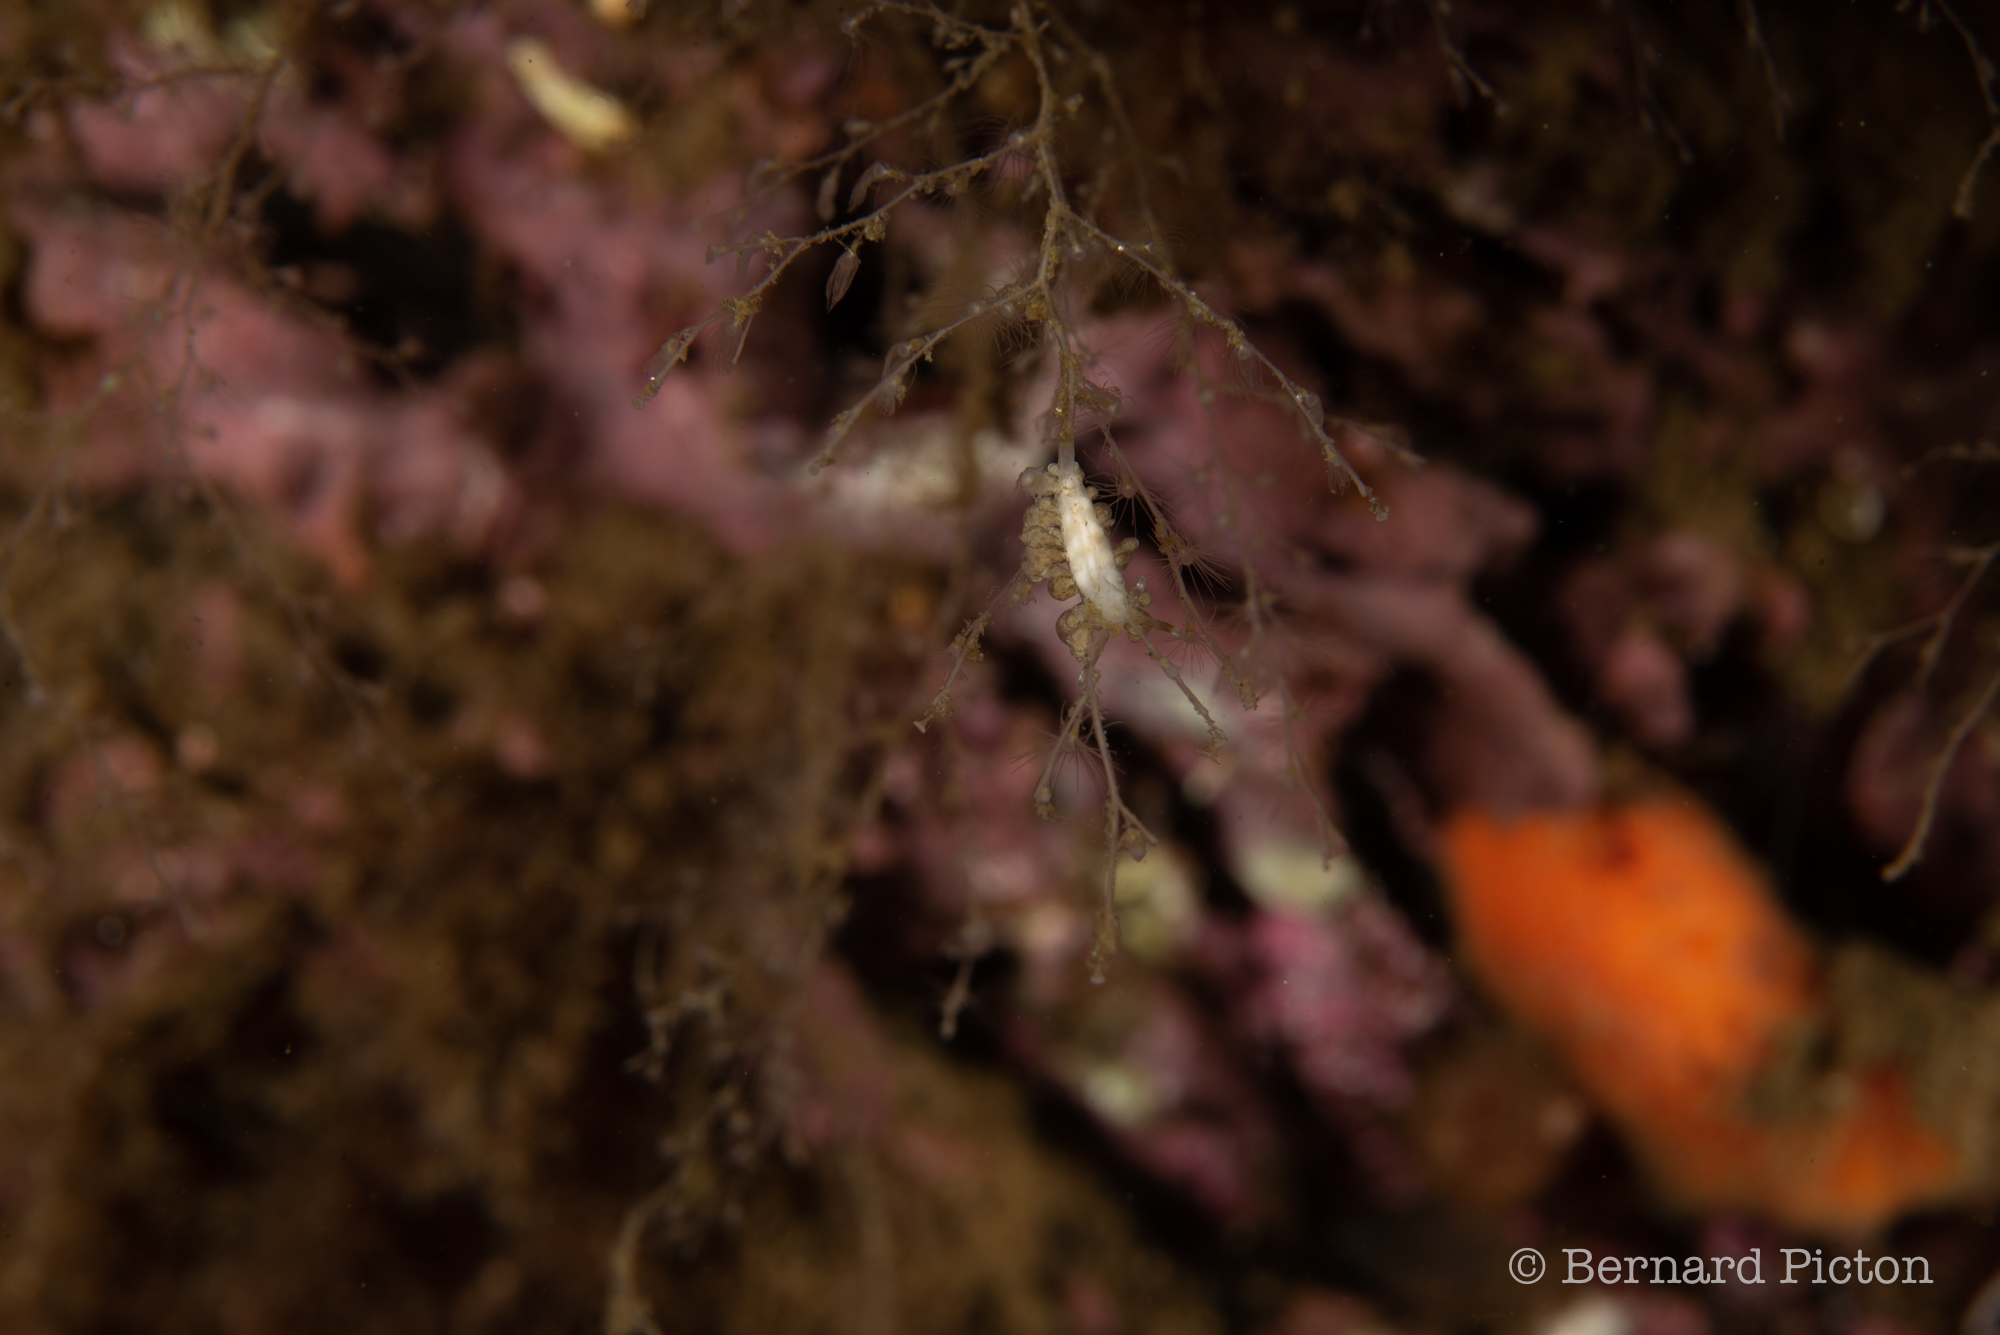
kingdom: Animalia
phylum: Mollusca
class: Gastropoda
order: Nudibranchia
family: Eubranchidae
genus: Eubranchus
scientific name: Eubranchus scintillans
